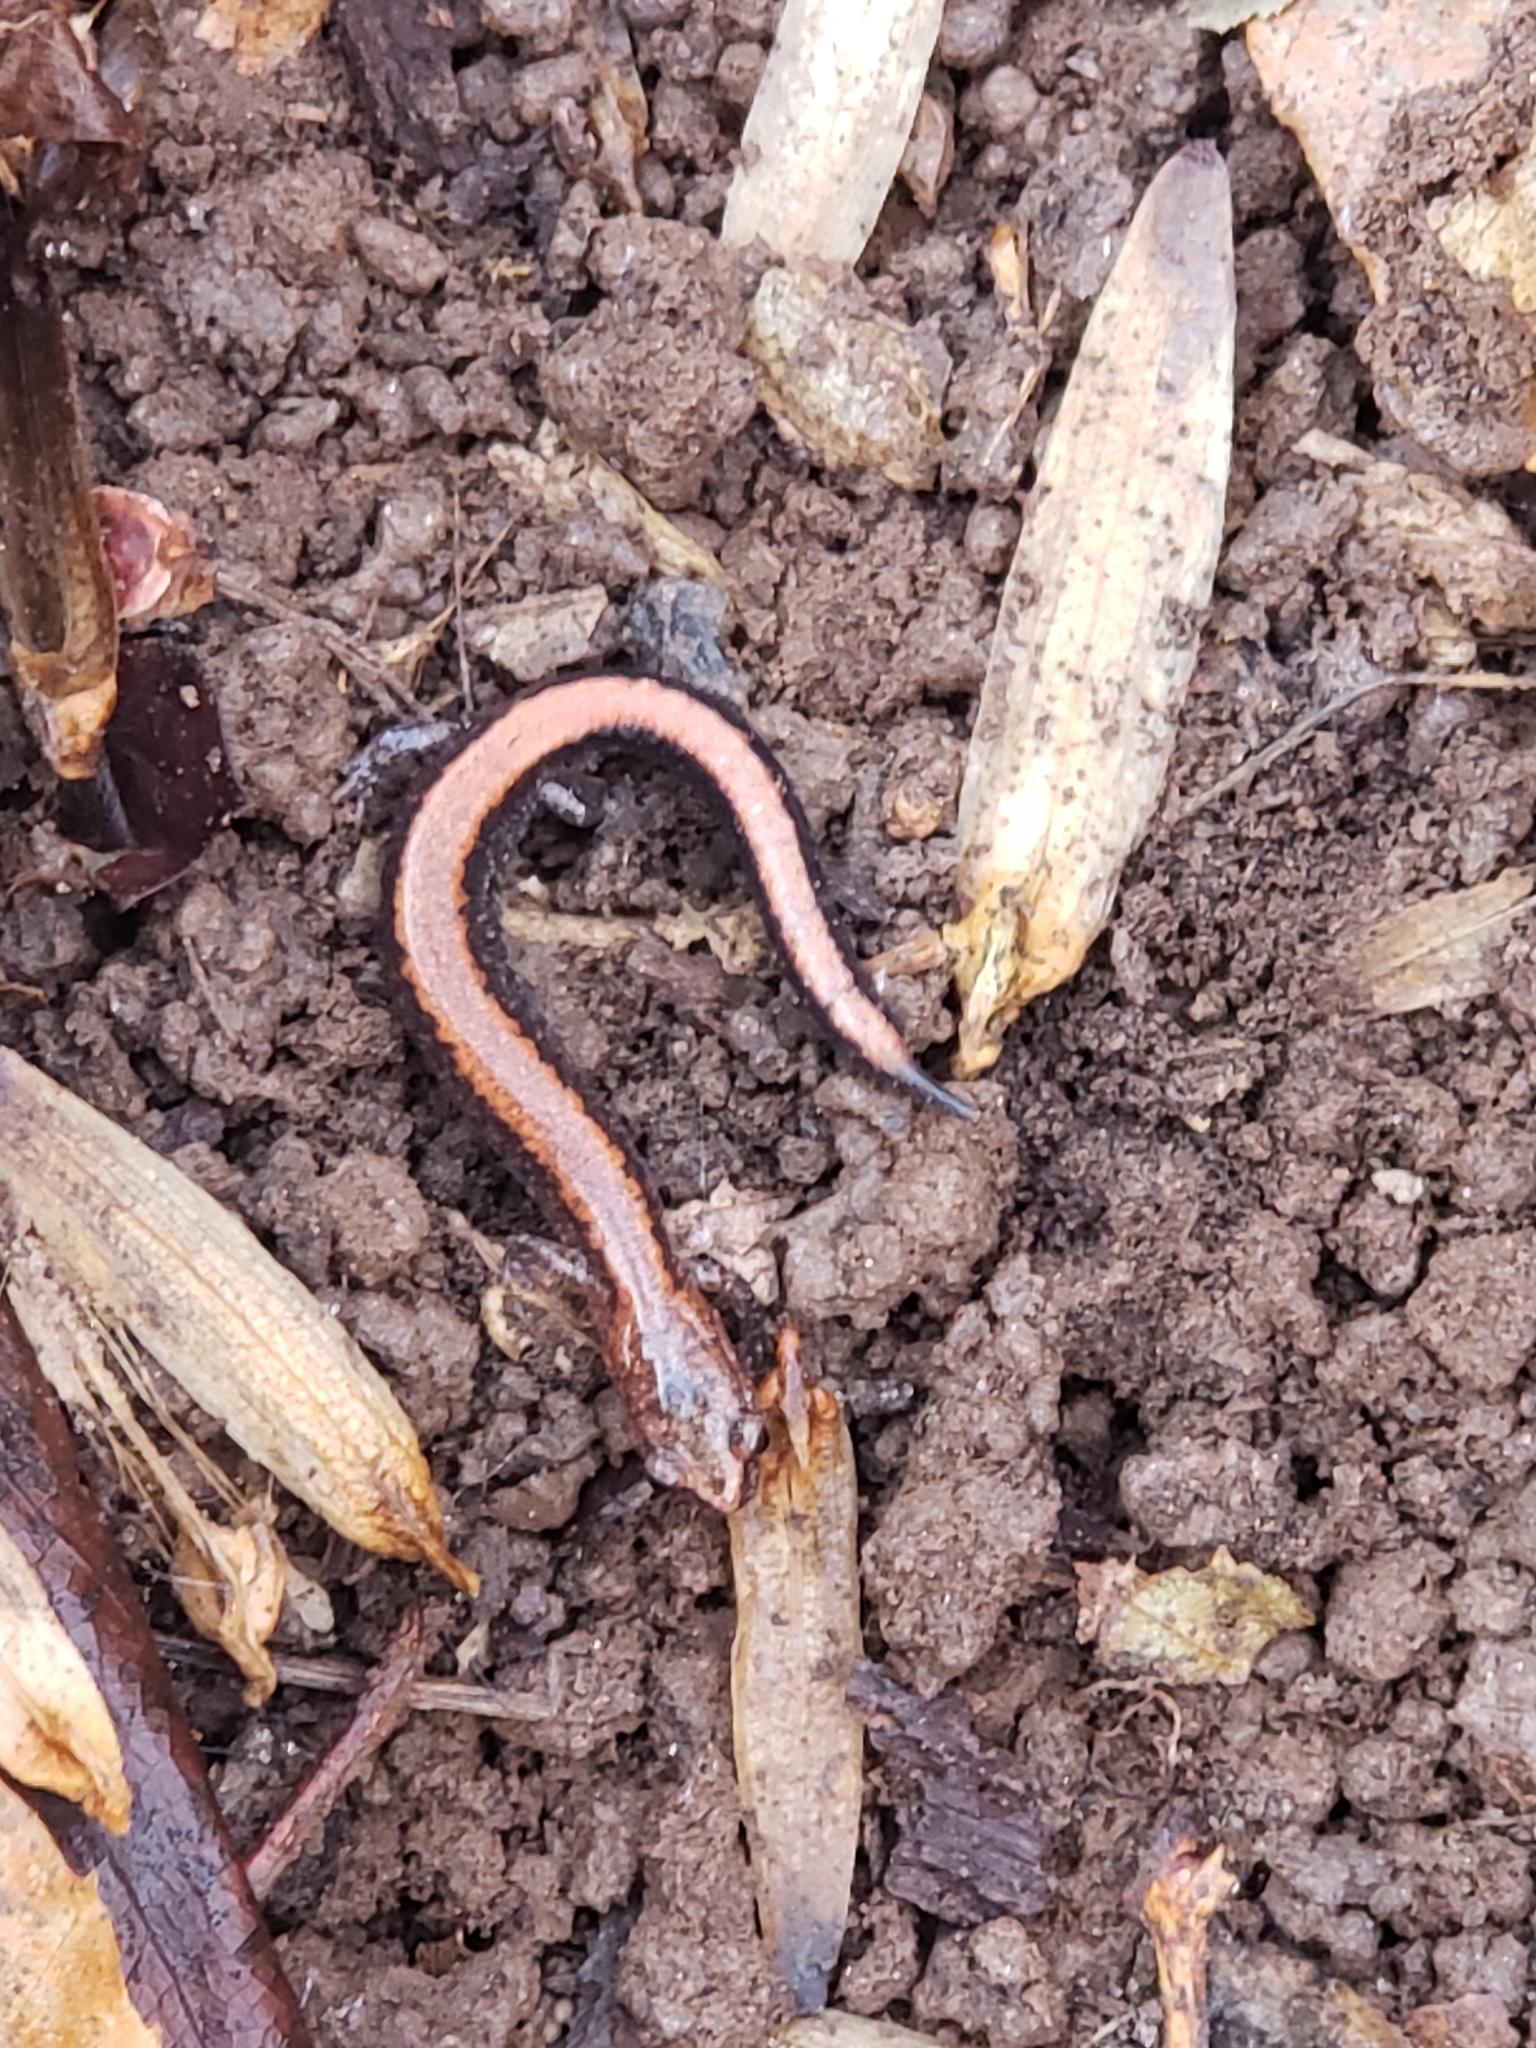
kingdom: Animalia
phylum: Chordata
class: Amphibia
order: Caudata
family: Plethodontidae
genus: Plethodon
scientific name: Plethodon cinereus
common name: Redback salamander
